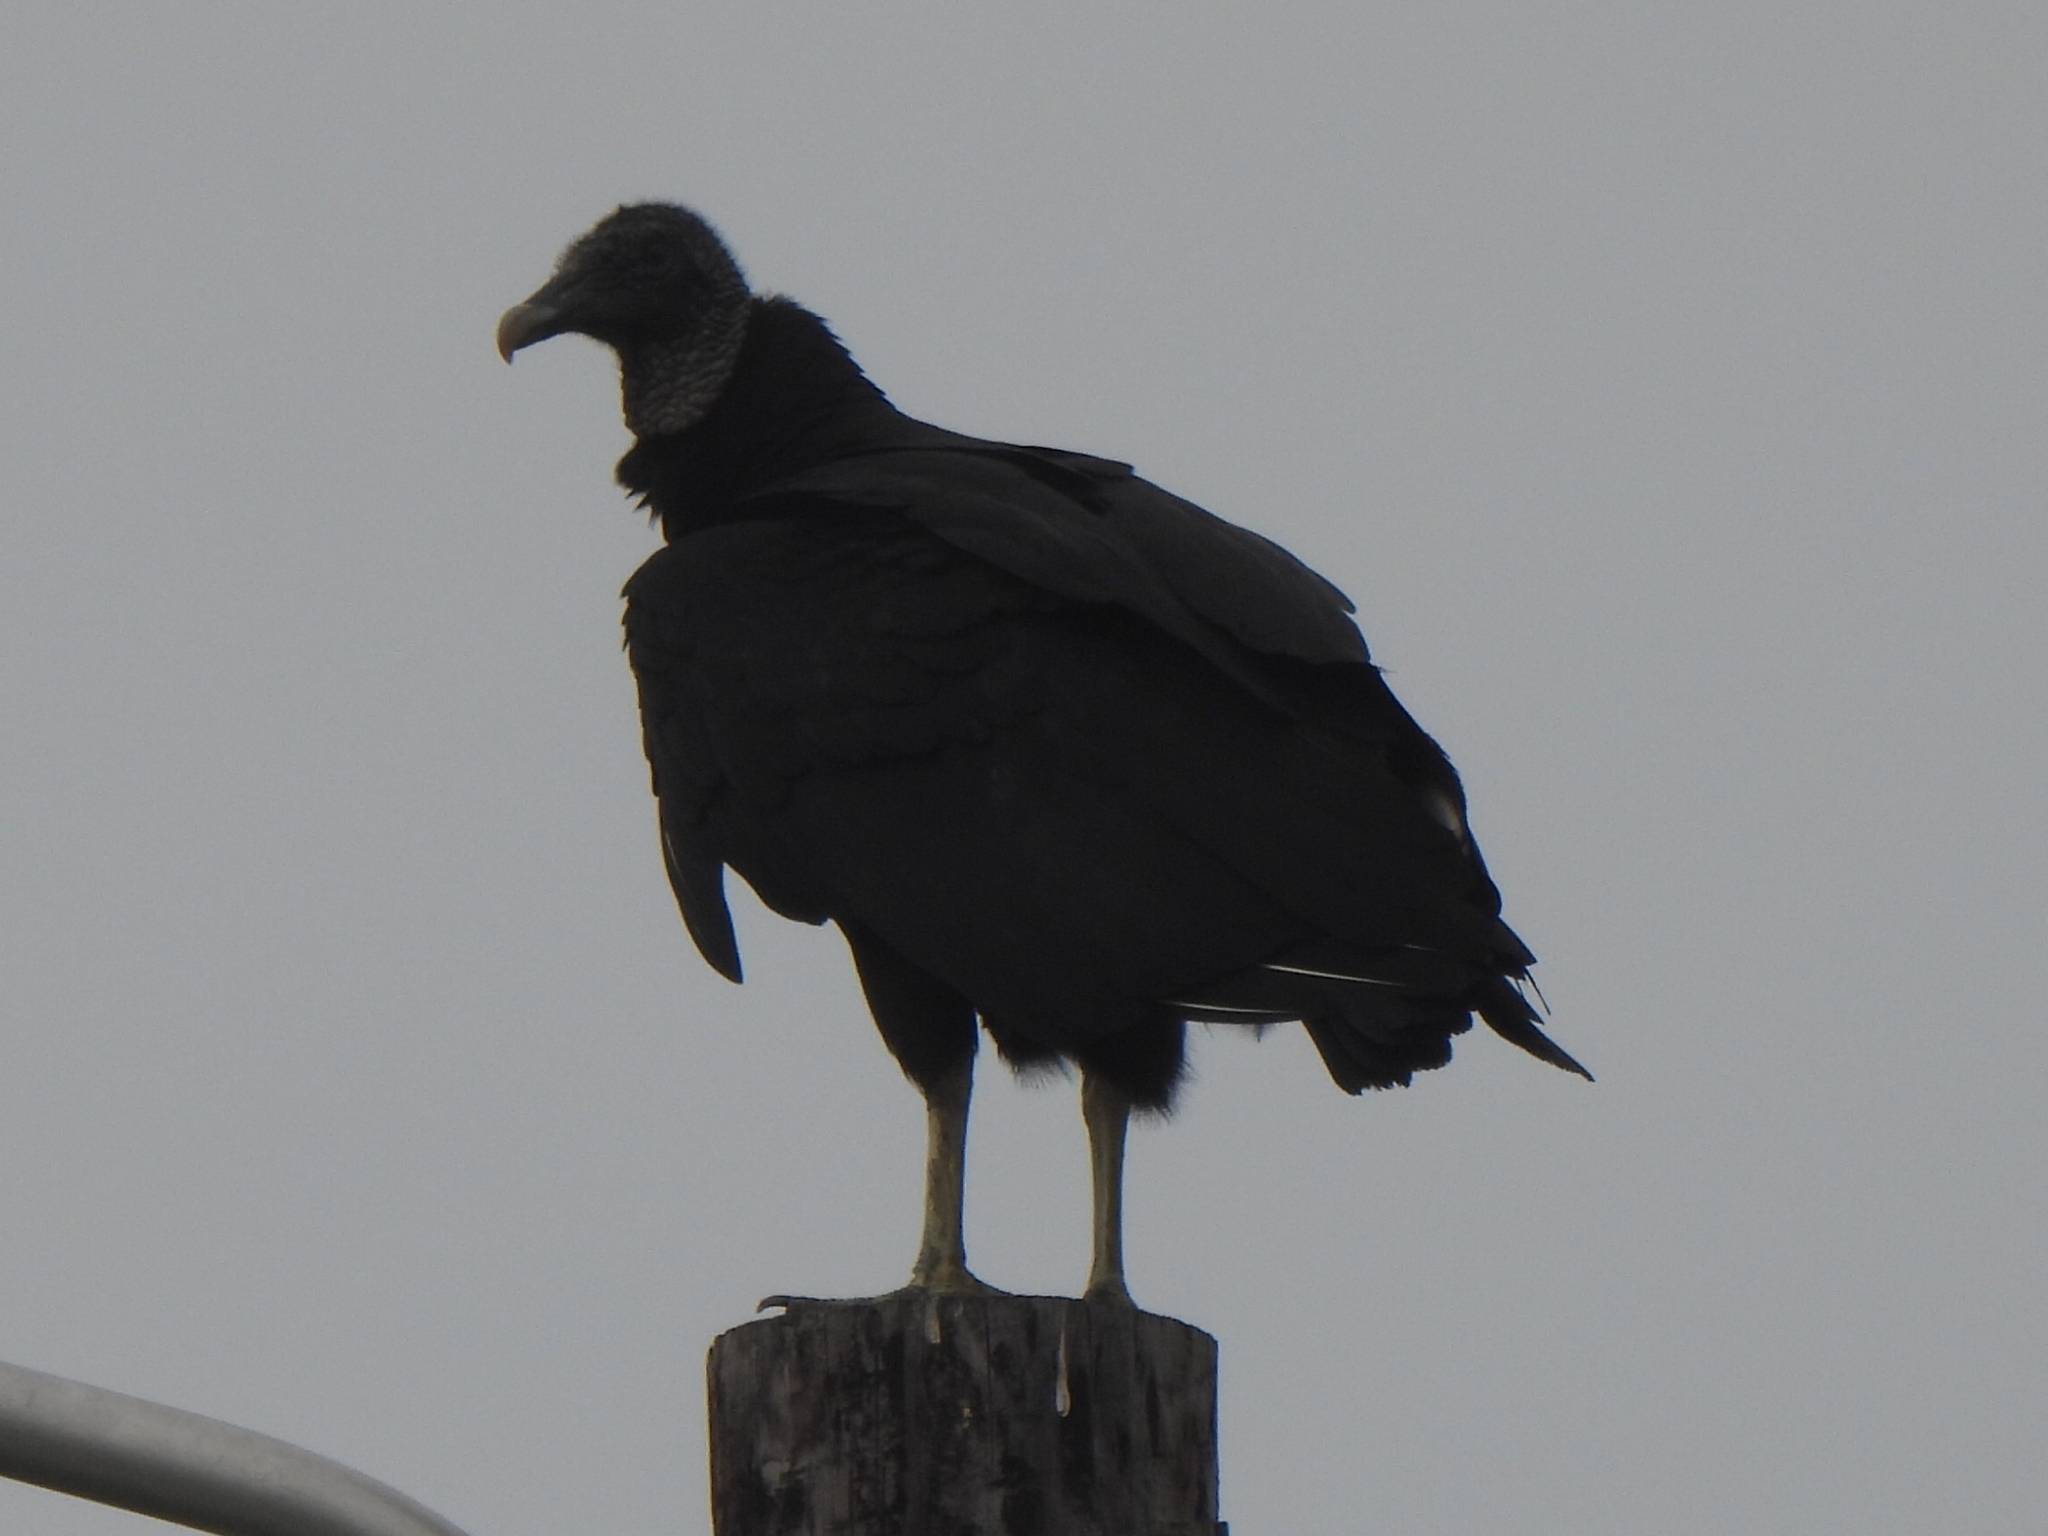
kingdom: Animalia
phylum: Chordata
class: Aves
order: Accipitriformes
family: Cathartidae
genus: Coragyps
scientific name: Coragyps atratus
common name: Black vulture
